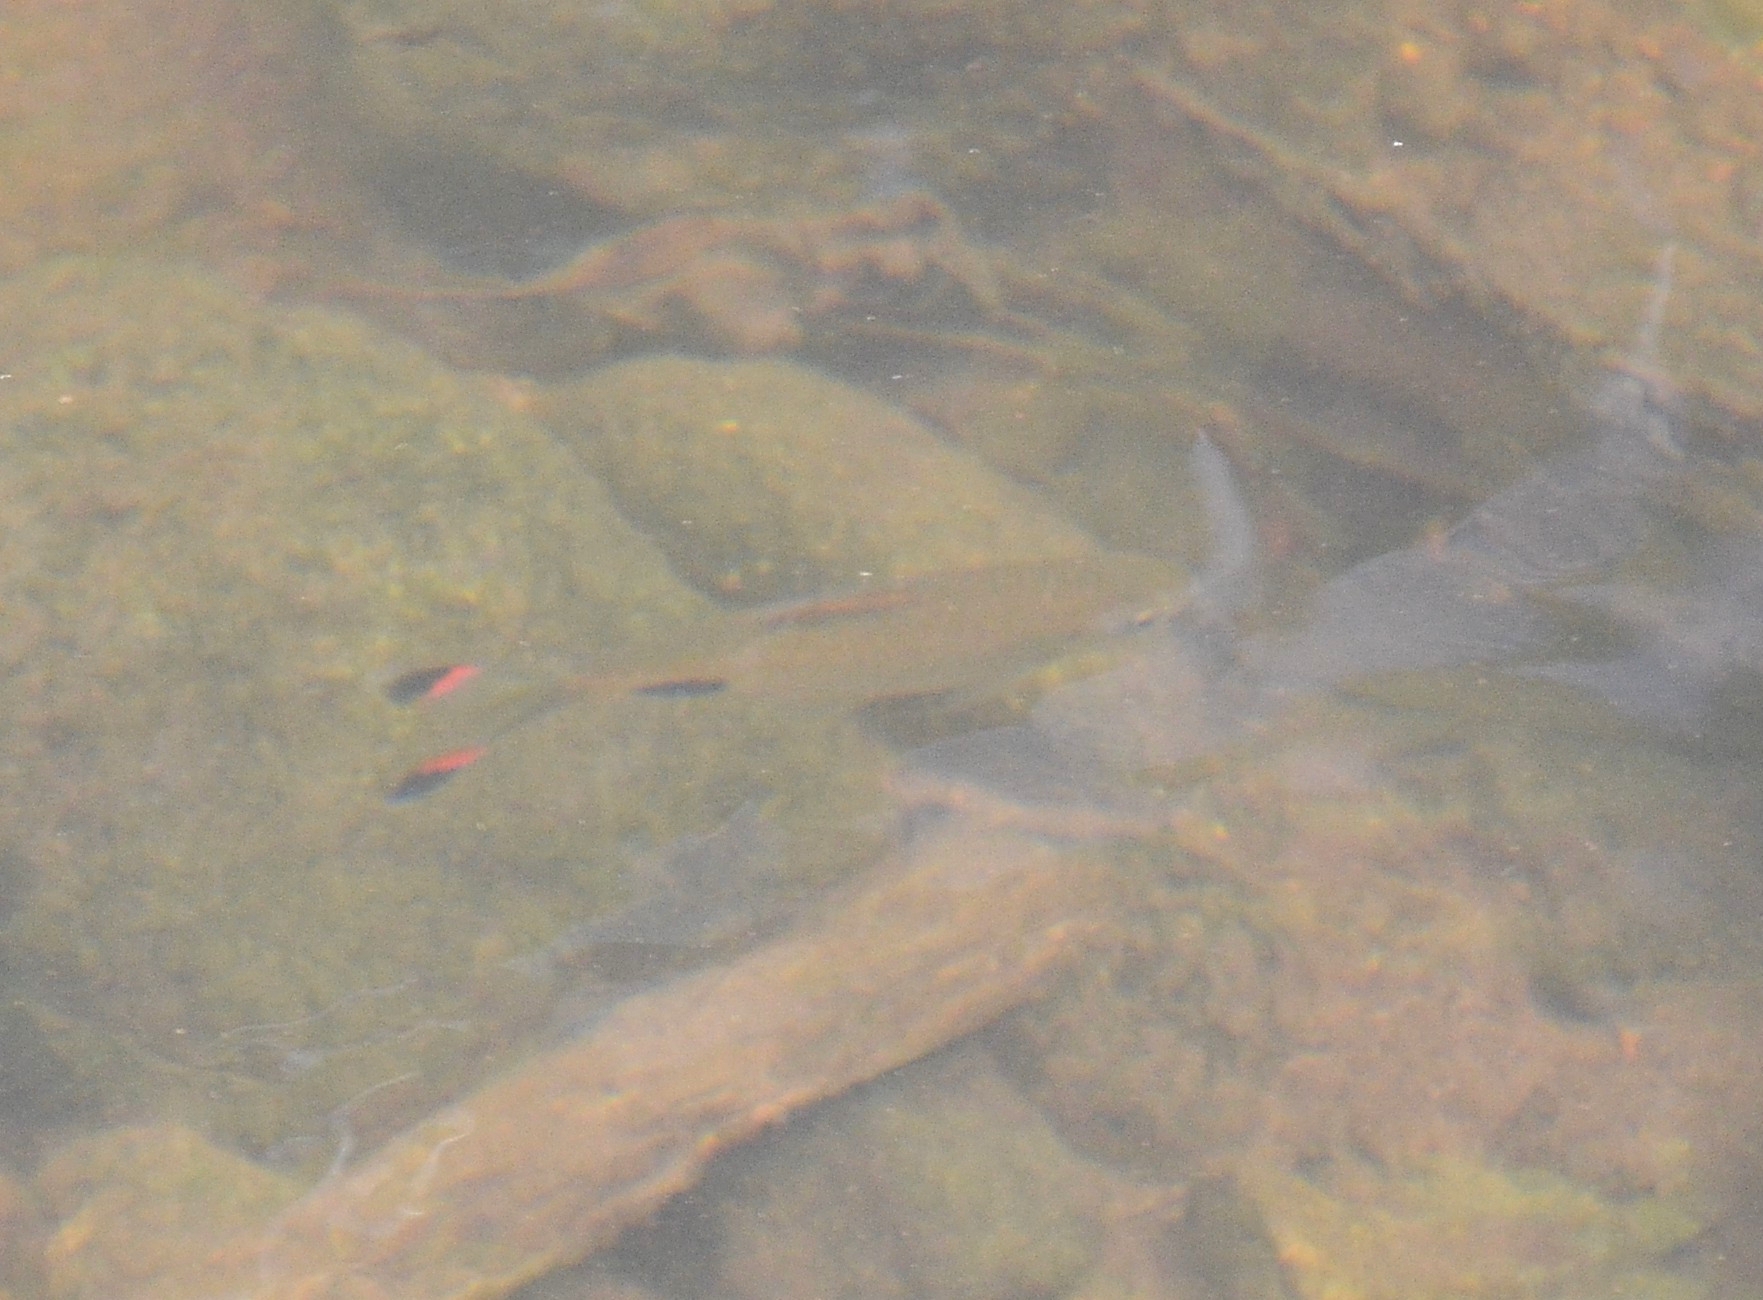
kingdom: Animalia
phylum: Chordata
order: Cypriniformes
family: Cyprinidae
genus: Dawkinsia
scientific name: Dawkinsia filamentosa
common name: Filament barb
